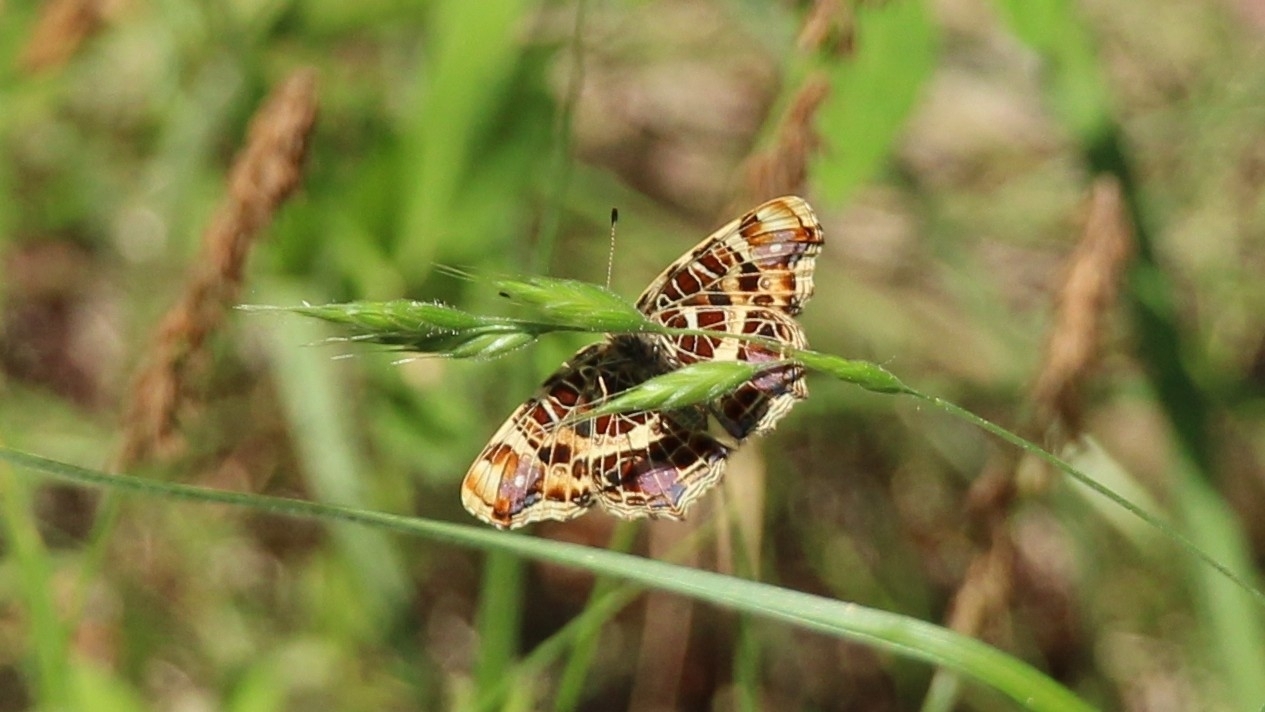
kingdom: Animalia
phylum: Arthropoda
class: Insecta
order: Lepidoptera
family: Nymphalidae
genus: Araschnia
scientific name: Araschnia levana
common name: Map butterfly
